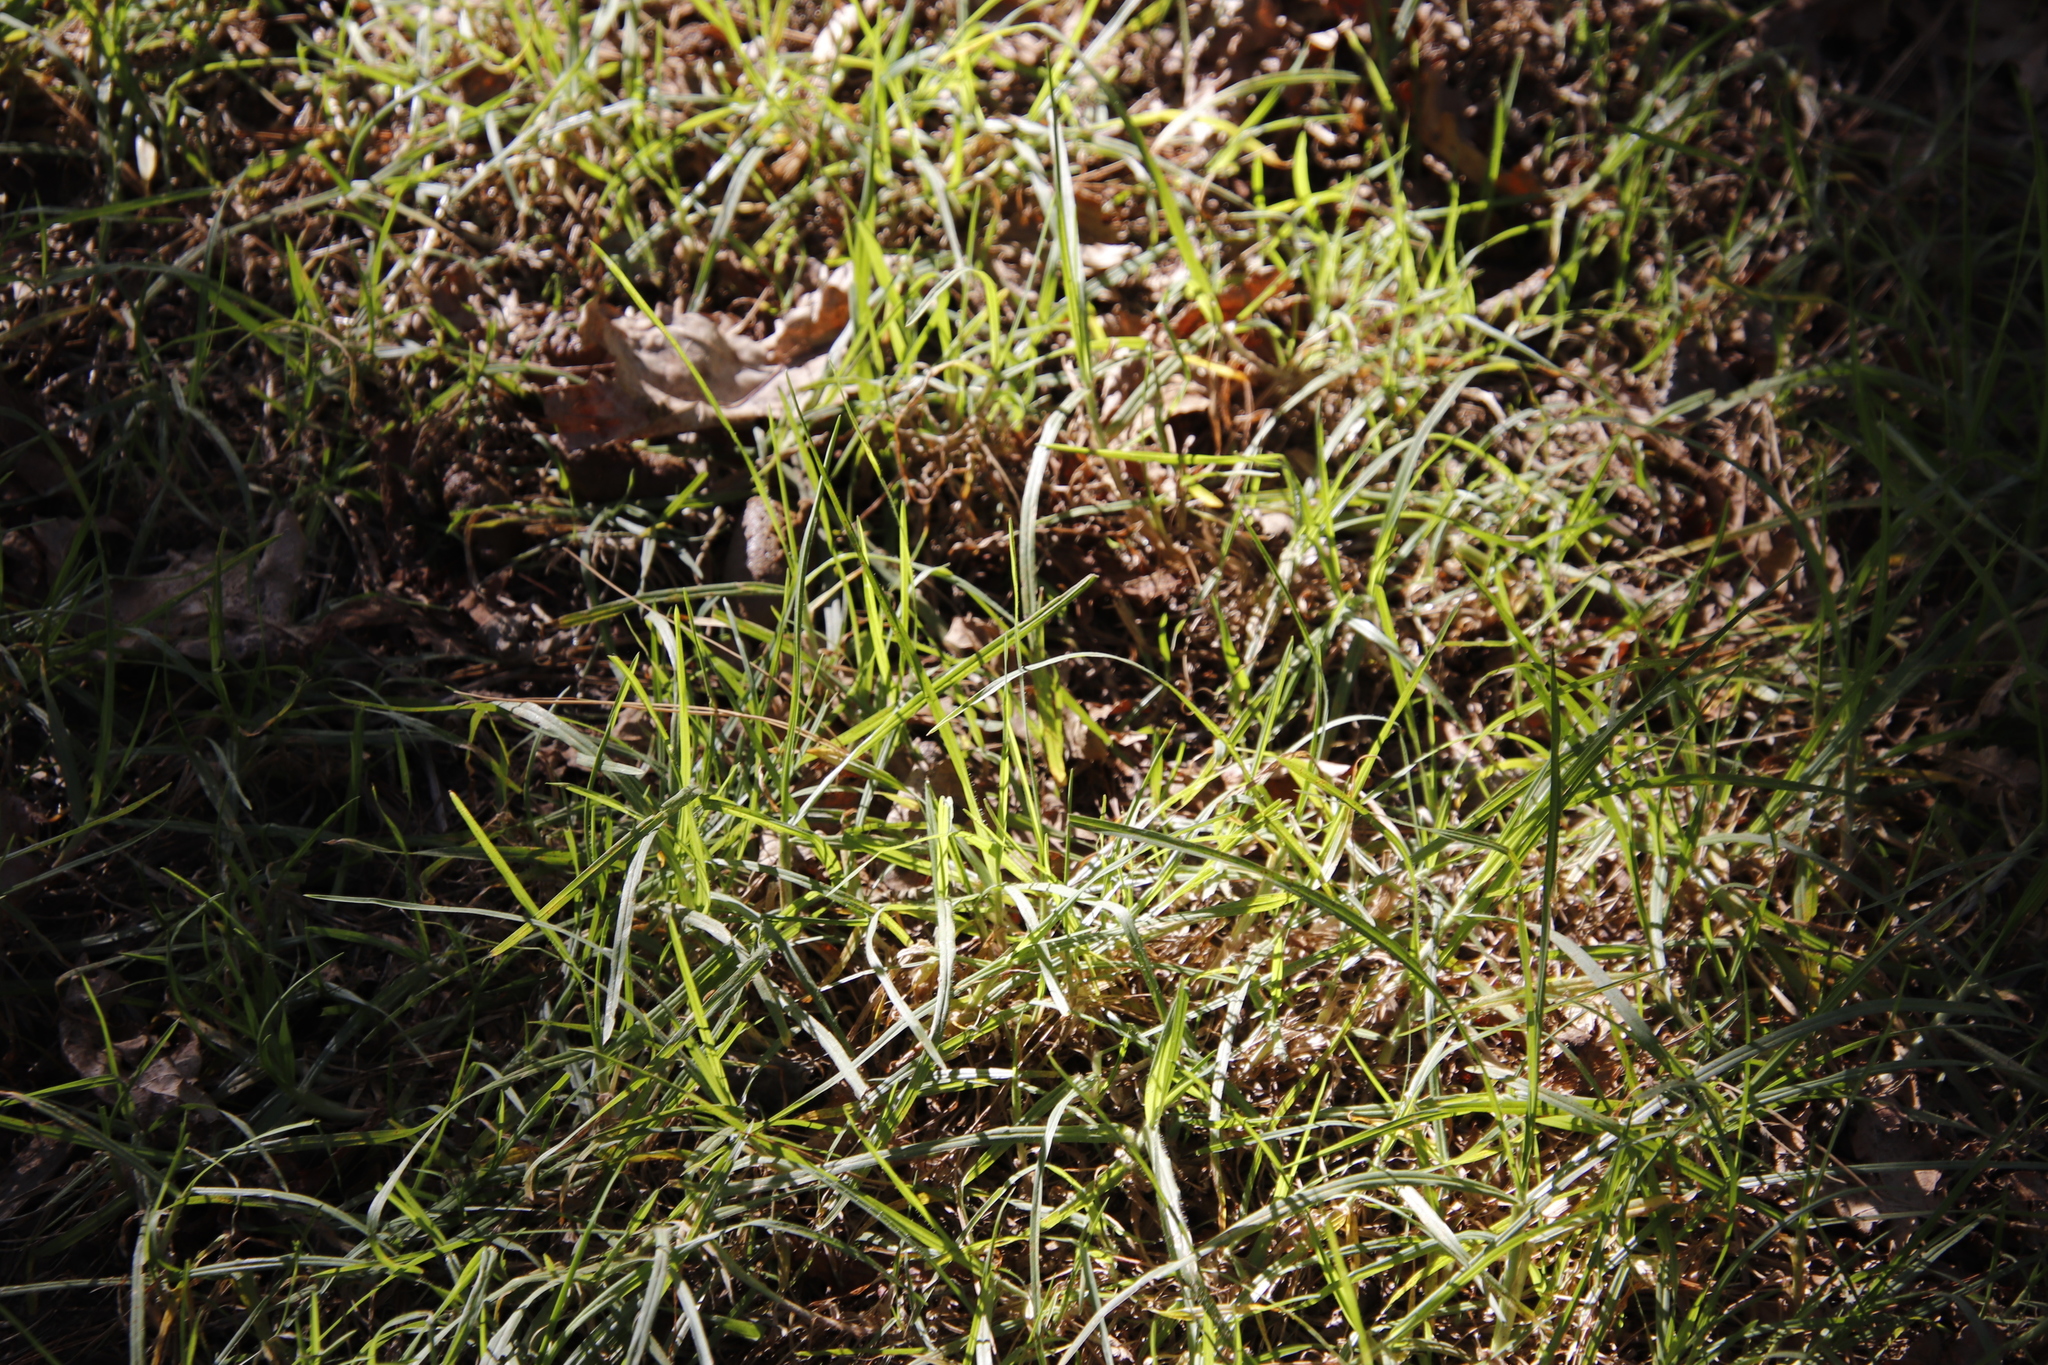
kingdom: Plantae
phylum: Tracheophyta
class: Liliopsida
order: Poales
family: Poaceae
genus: Cenchrus
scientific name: Cenchrus clandestinus
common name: Kikuyugrass
